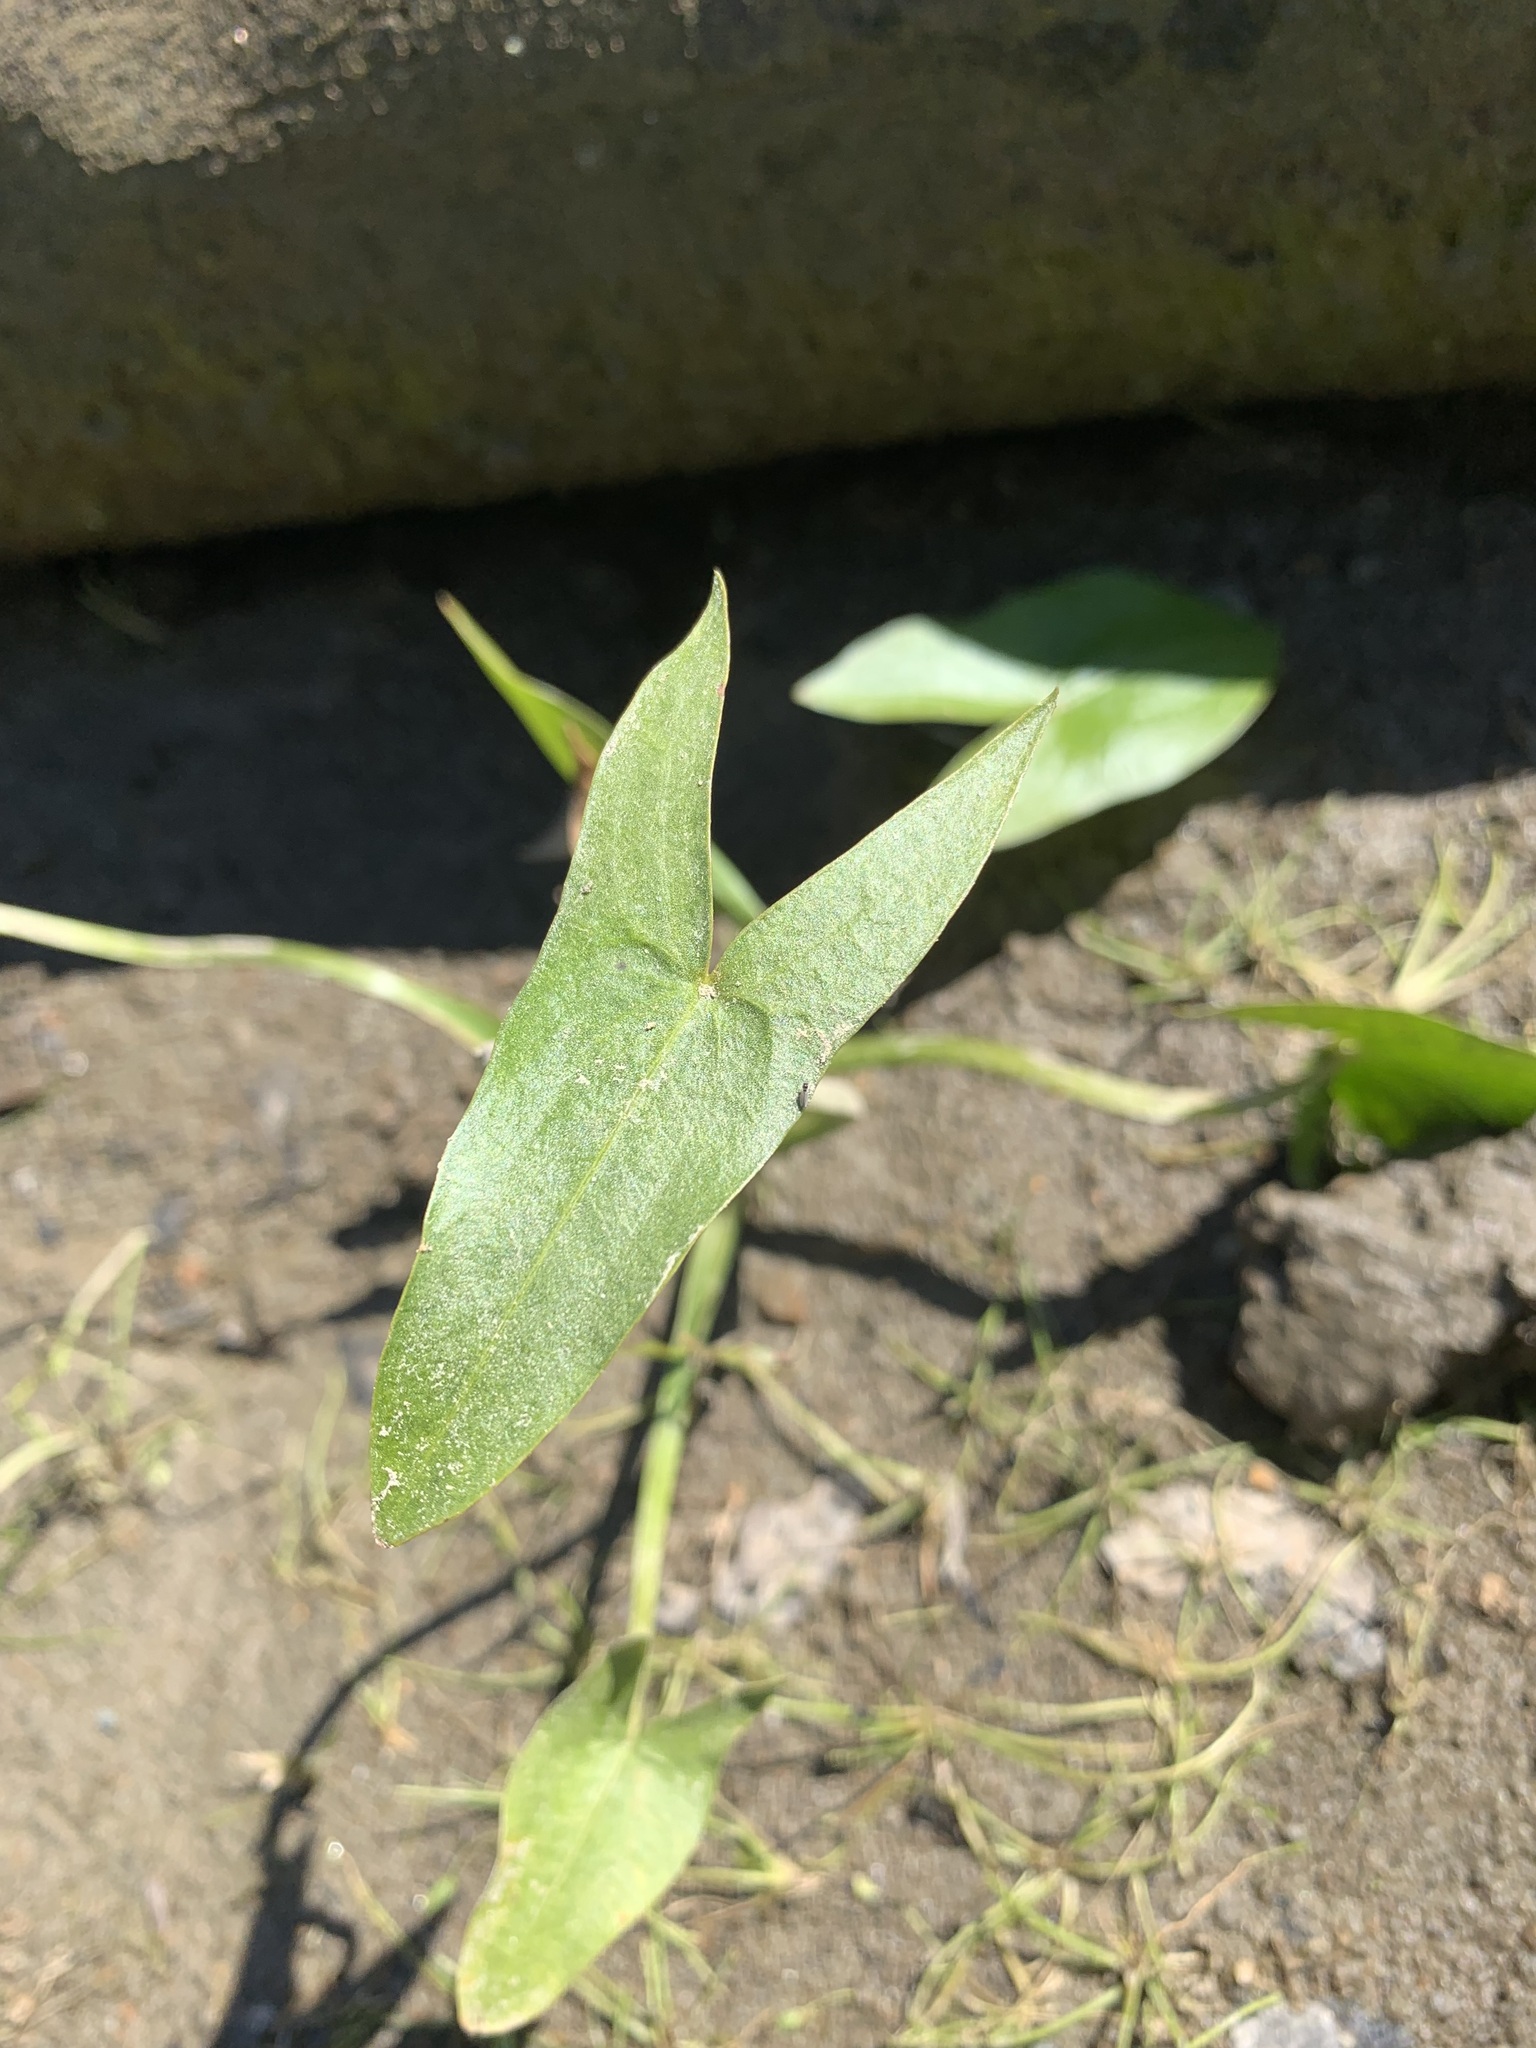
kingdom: Plantae
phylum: Tracheophyta
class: Liliopsida
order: Alismatales
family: Alismataceae
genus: Sagittaria
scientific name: Sagittaria sagittifolia
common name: Arrowhead
